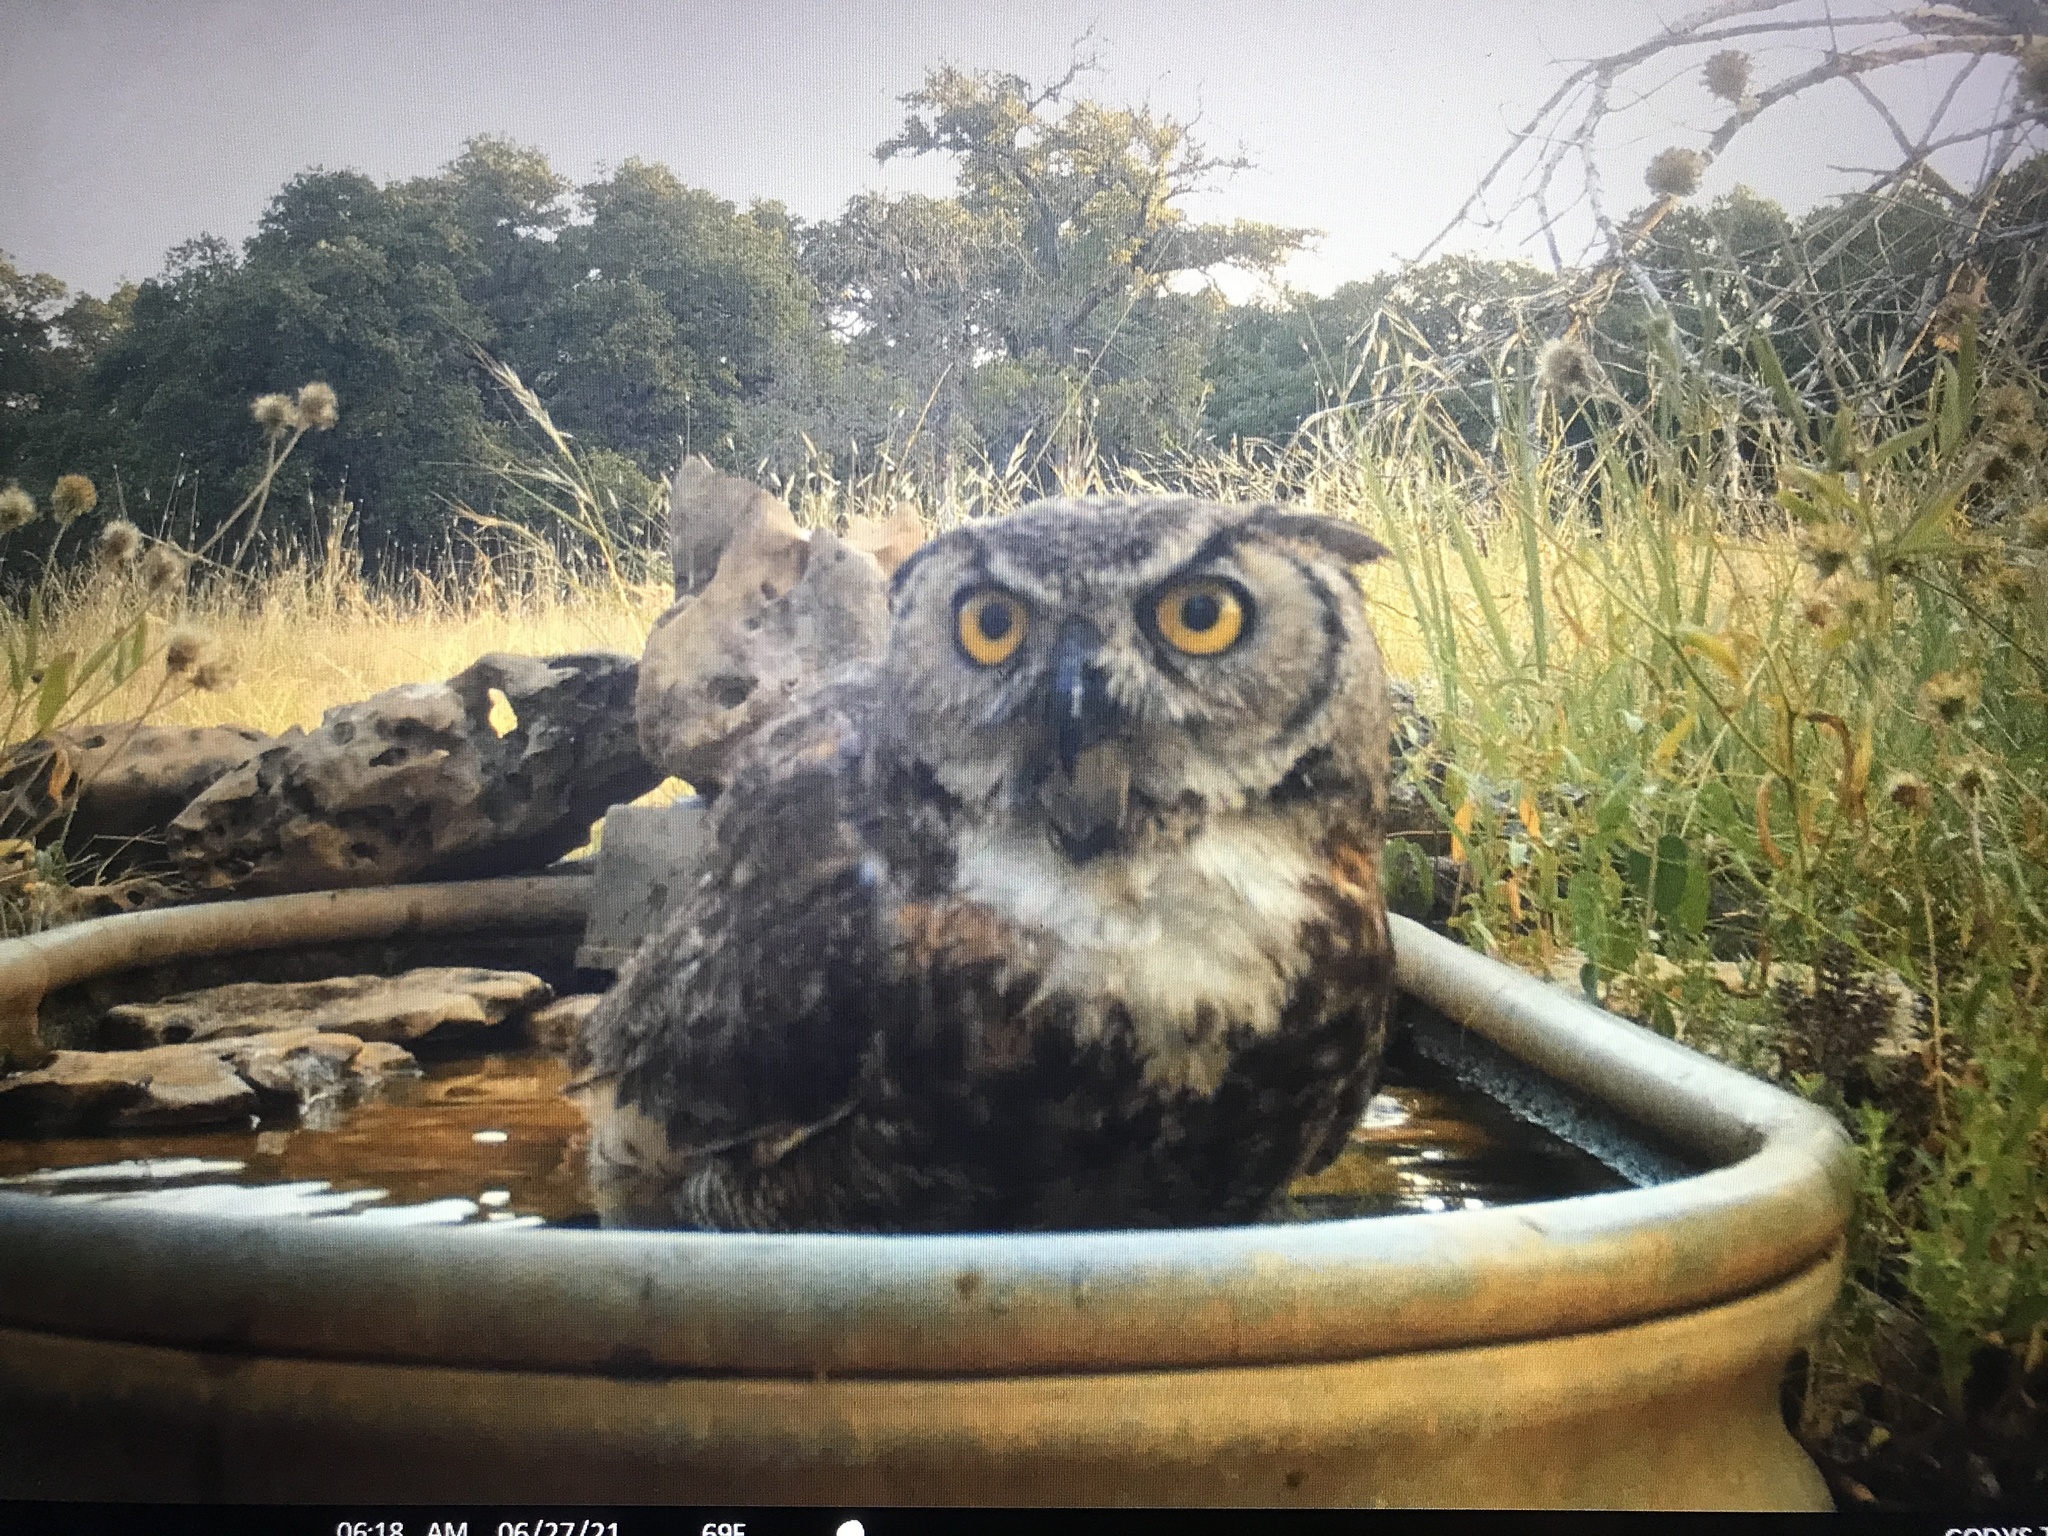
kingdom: Animalia
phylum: Chordata
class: Aves
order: Strigiformes
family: Strigidae
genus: Bubo
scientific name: Bubo virginianus
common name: Great horned owl
